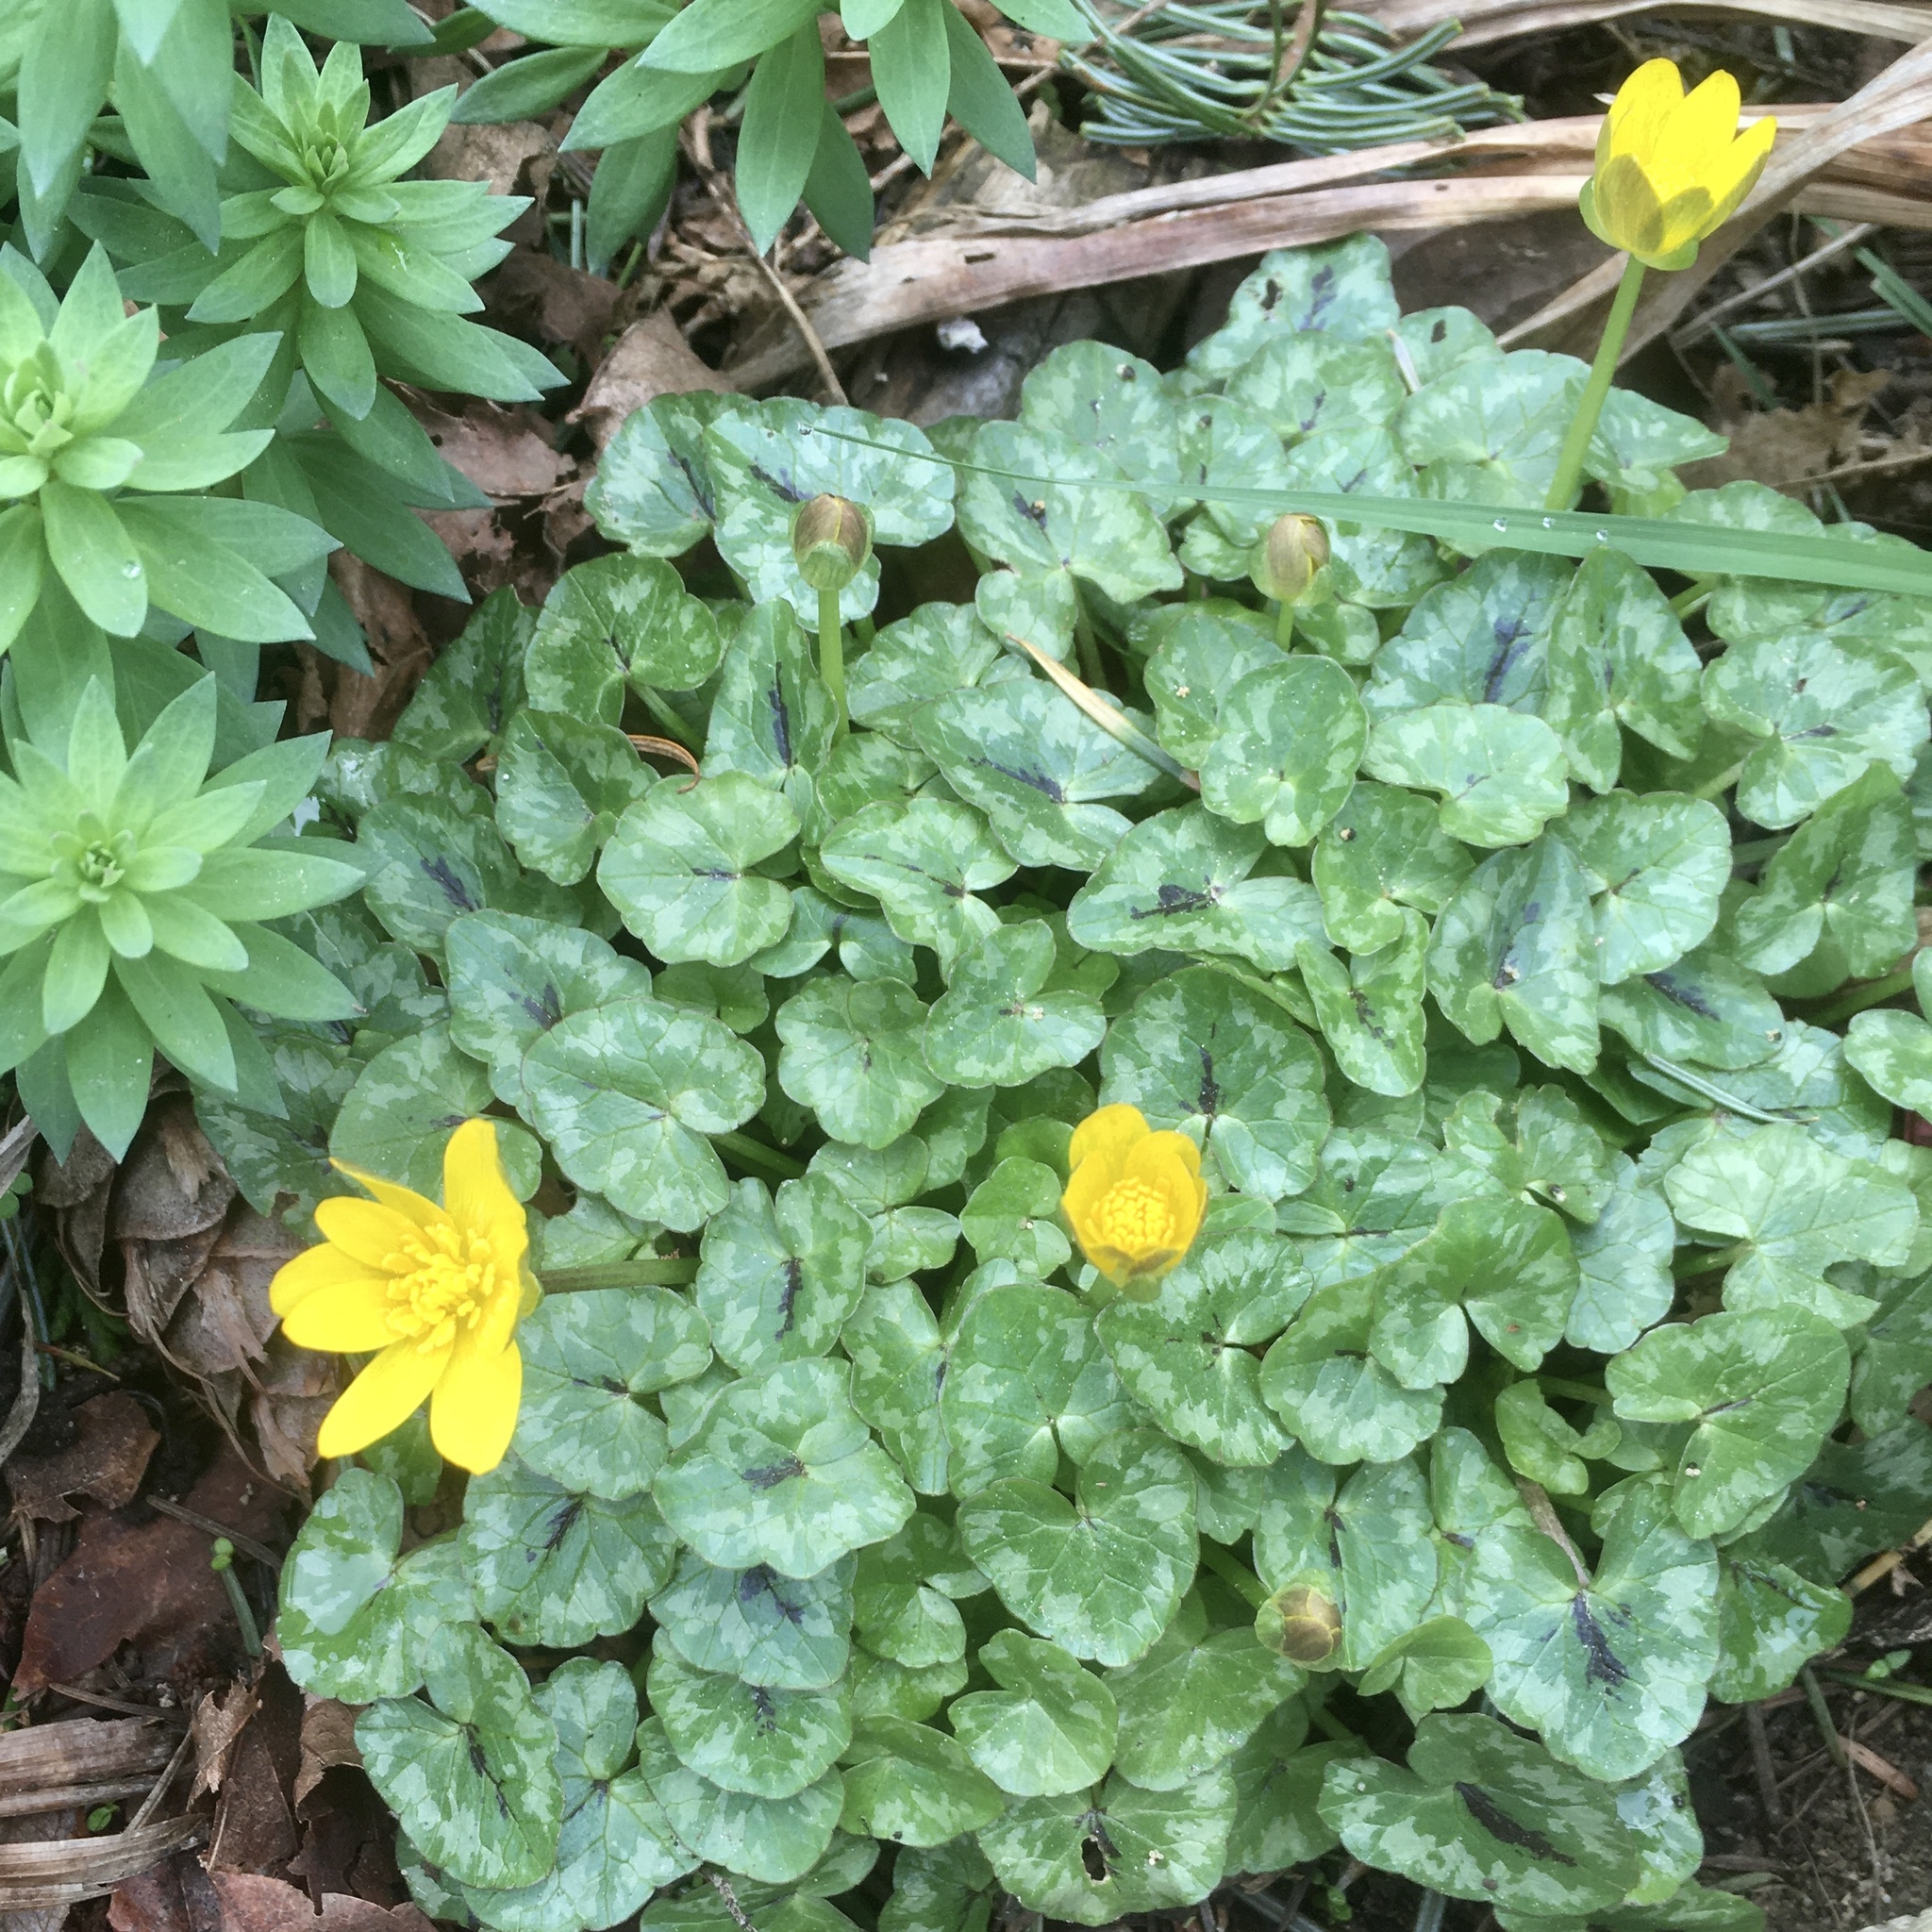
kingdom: Plantae
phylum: Tracheophyta
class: Magnoliopsida
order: Ranunculales
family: Ranunculaceae
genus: Ficaria
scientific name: Ficaria verna
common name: Lesser celandine
